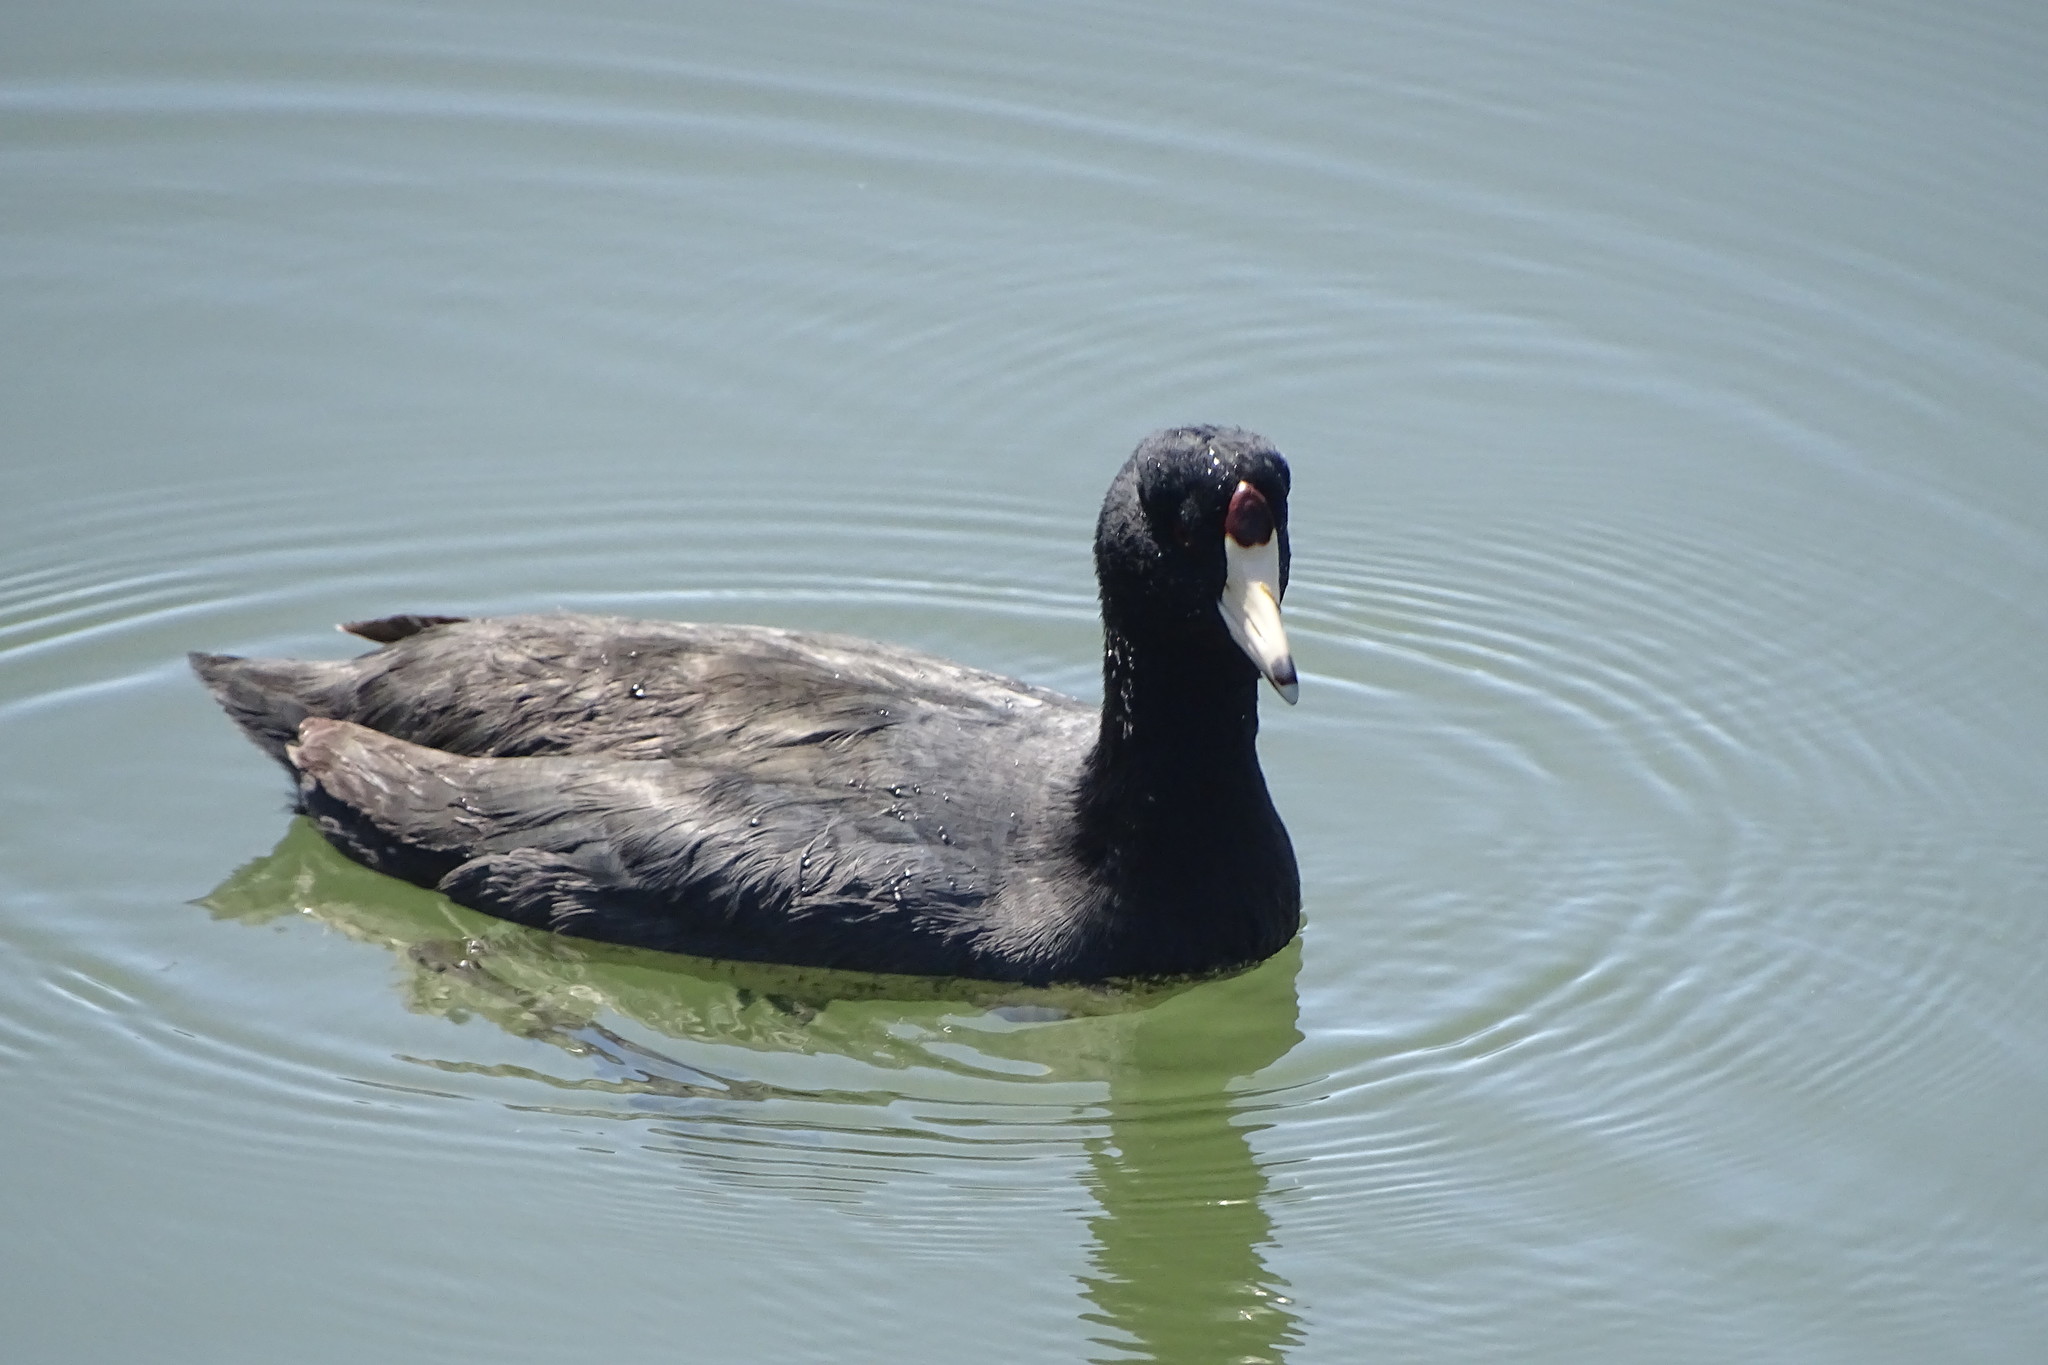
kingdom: Animalia
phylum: Chordata
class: Aves
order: Gruiformes
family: Rallidae
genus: Fulica
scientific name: Fulica americana
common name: American coot
